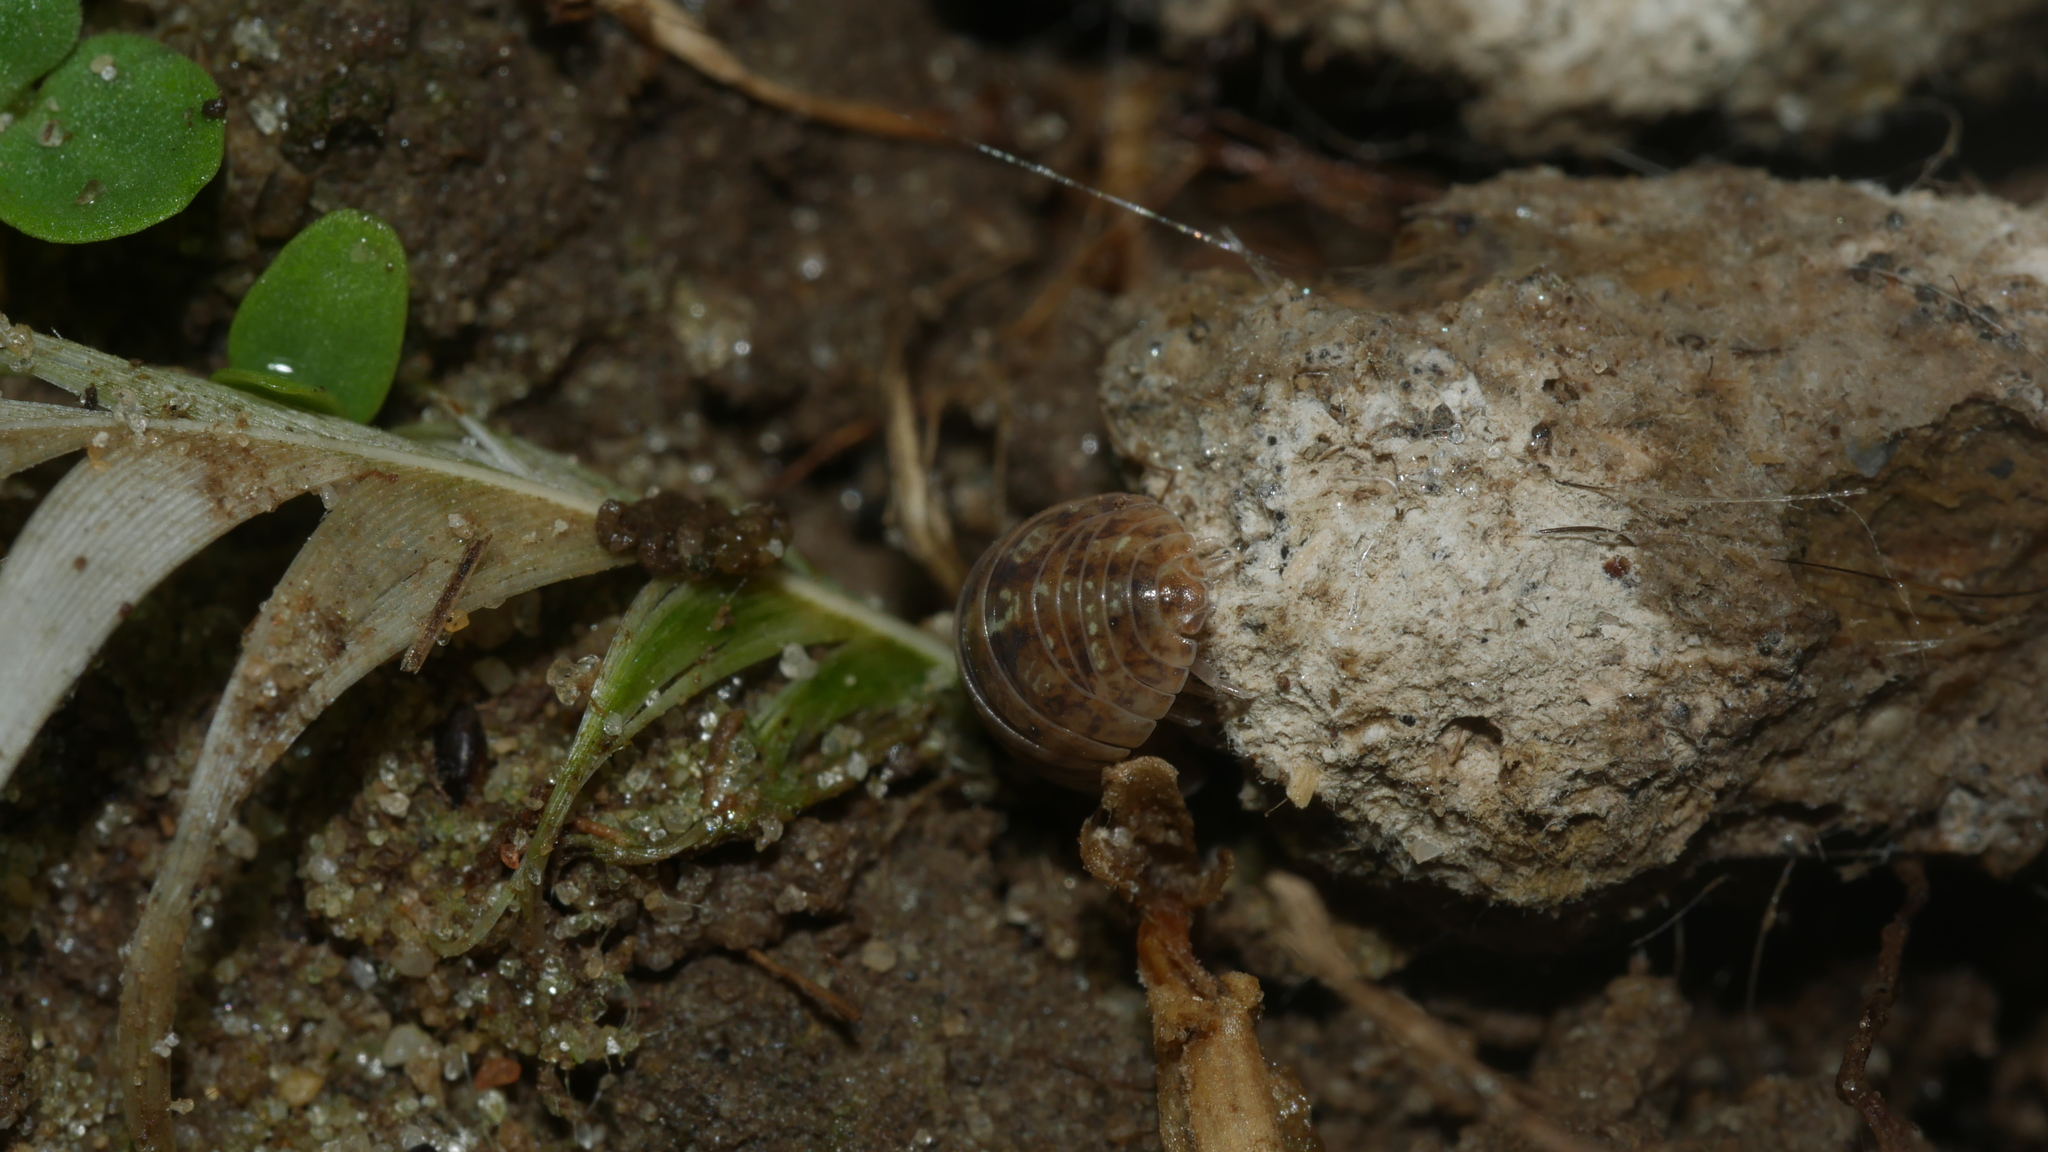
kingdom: Animalia
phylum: Arthropoda
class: Malacostraca
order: Isopoda
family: Armadillidiidae
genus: Armadillidium
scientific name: Armadillidium vulgare
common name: Common pill woodlouse
